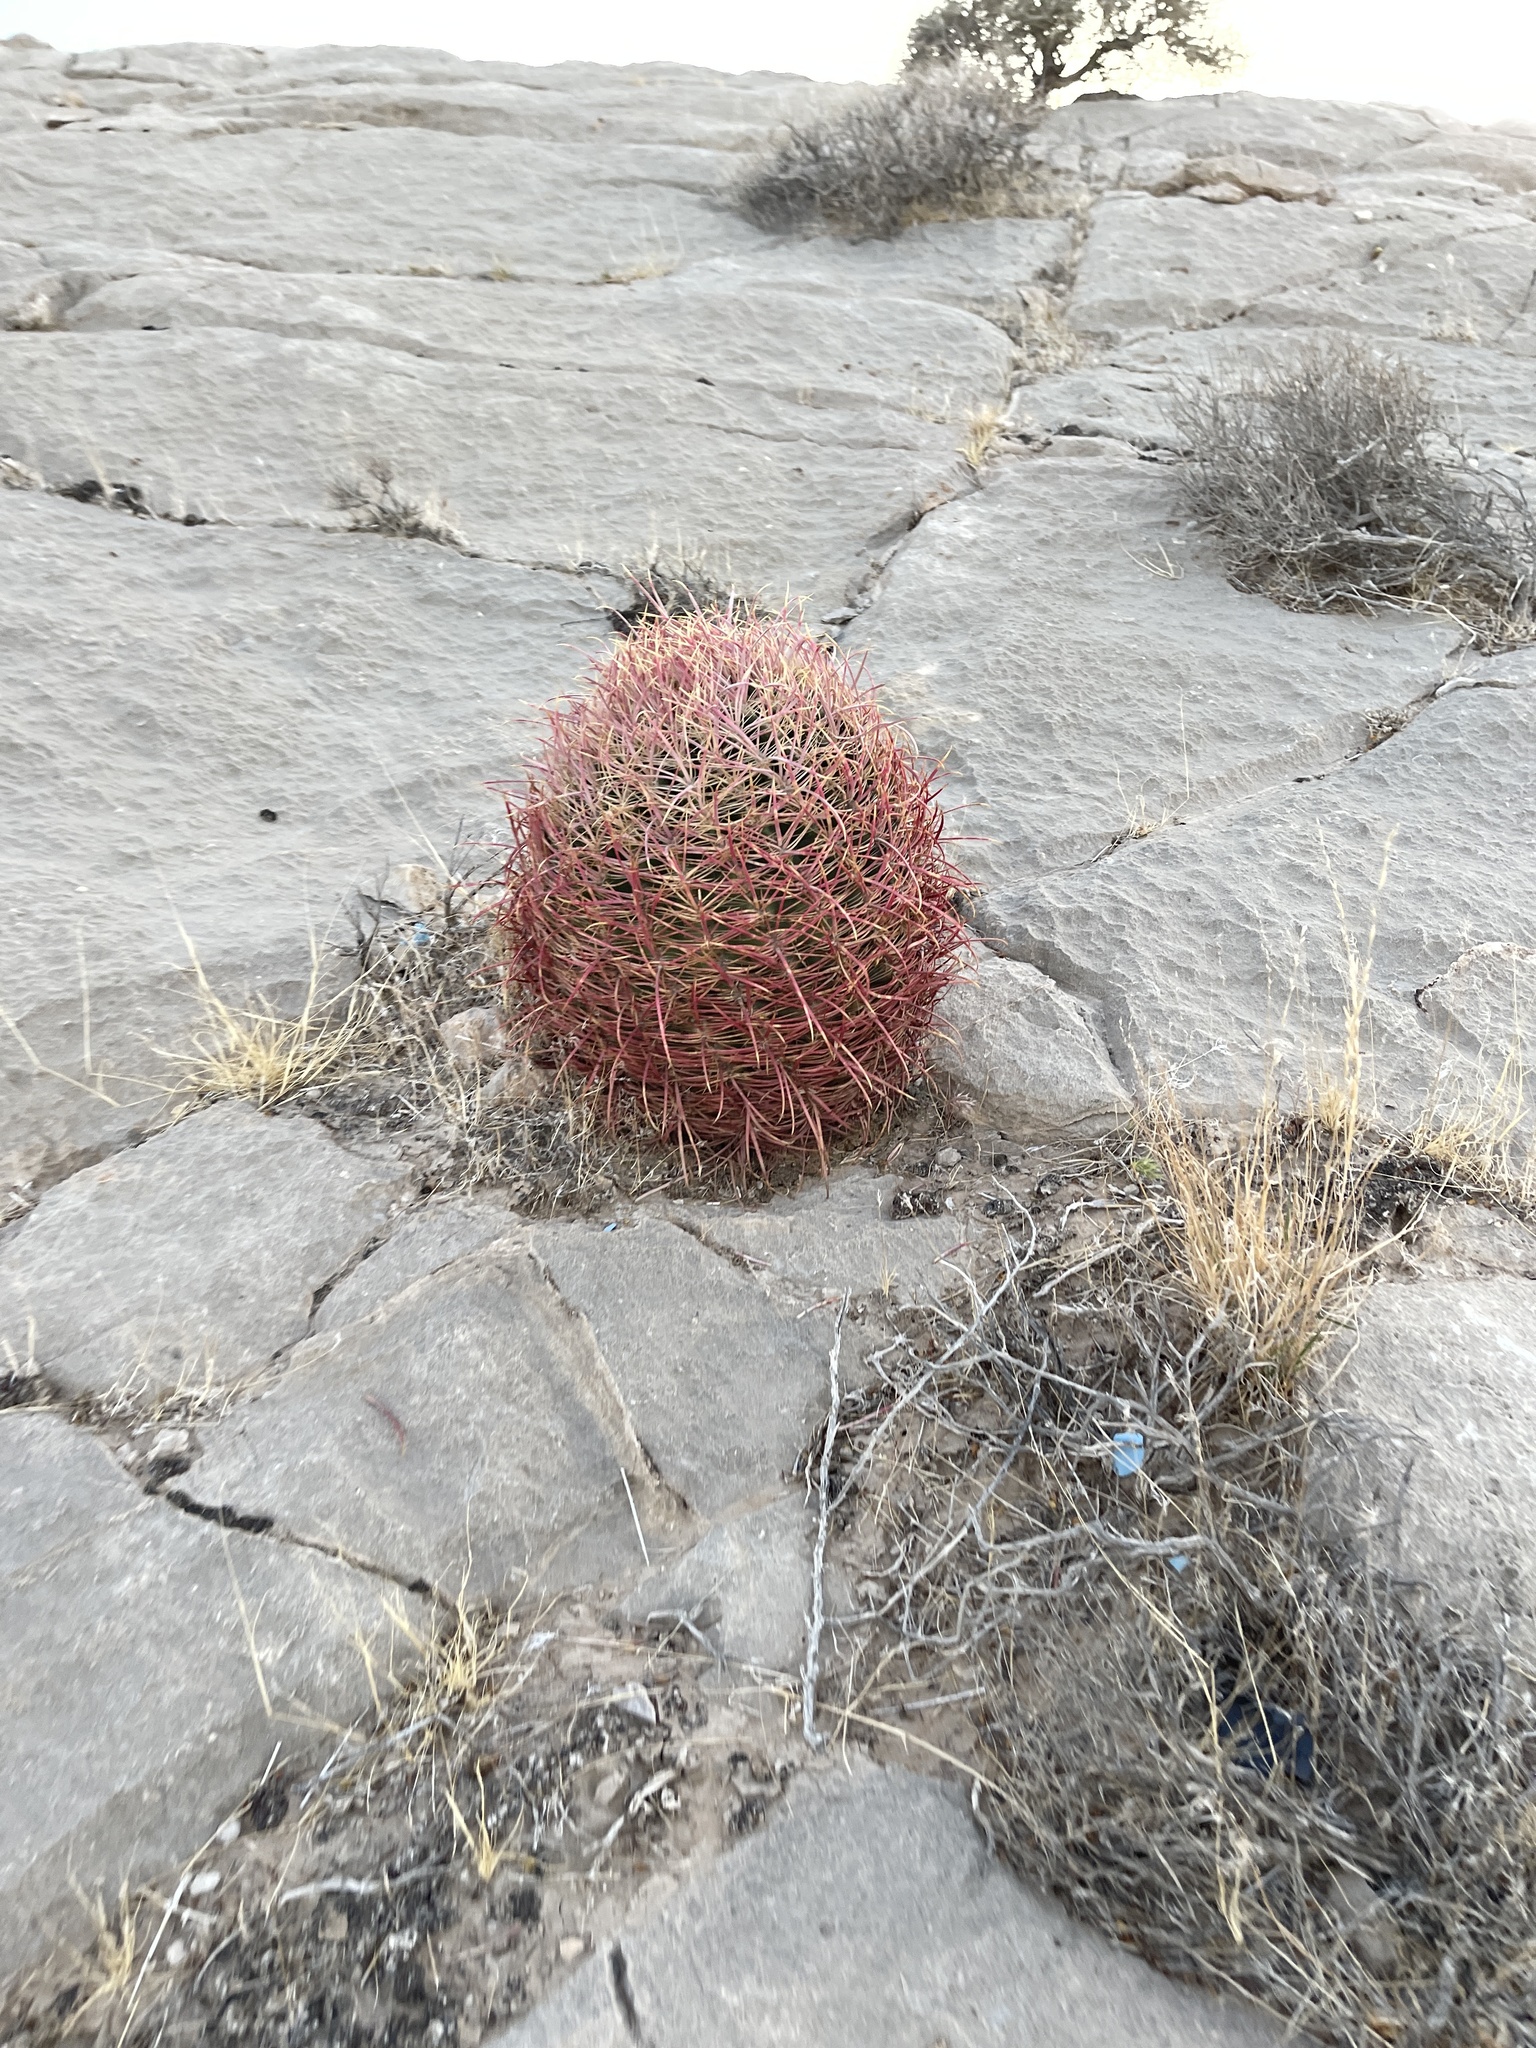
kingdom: Plantae
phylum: Tracheophyta
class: Magnoliopsida
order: Caryophyllales
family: Cactaceae
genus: Ferocactus
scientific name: Ferocactus cylindraceus
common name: California barrel cactus
